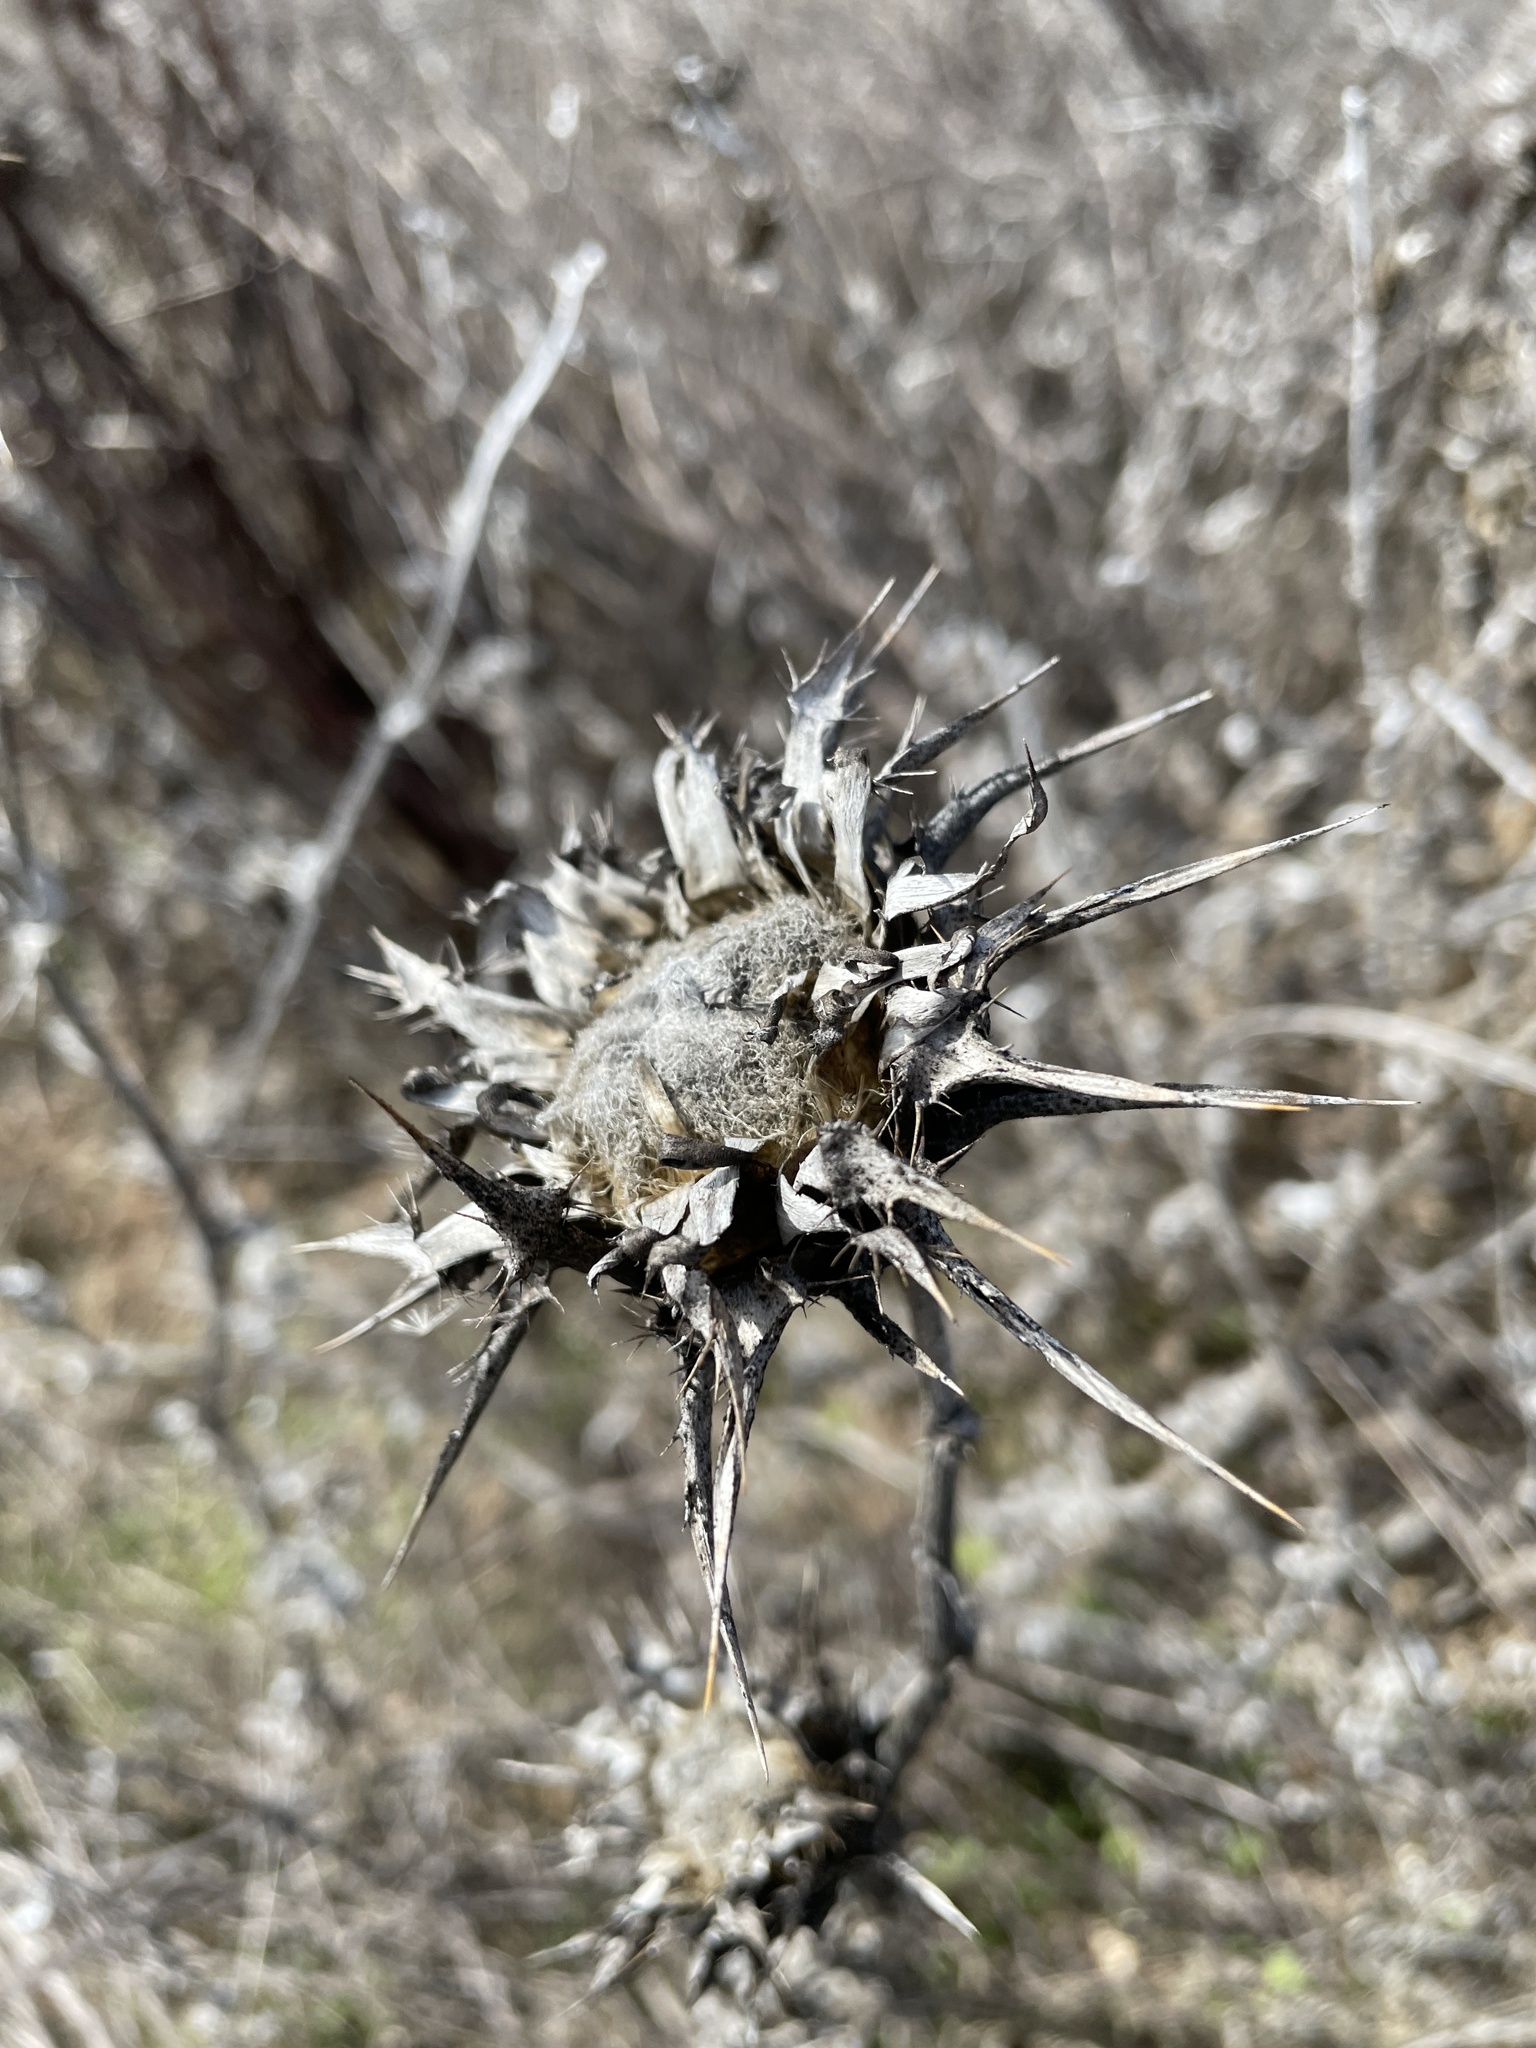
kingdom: Plantae
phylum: Tracheophyta
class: Magnoliopsida
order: Asterales
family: Asteraceae
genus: Silybum
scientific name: Silybum marianum
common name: Milk thistle
